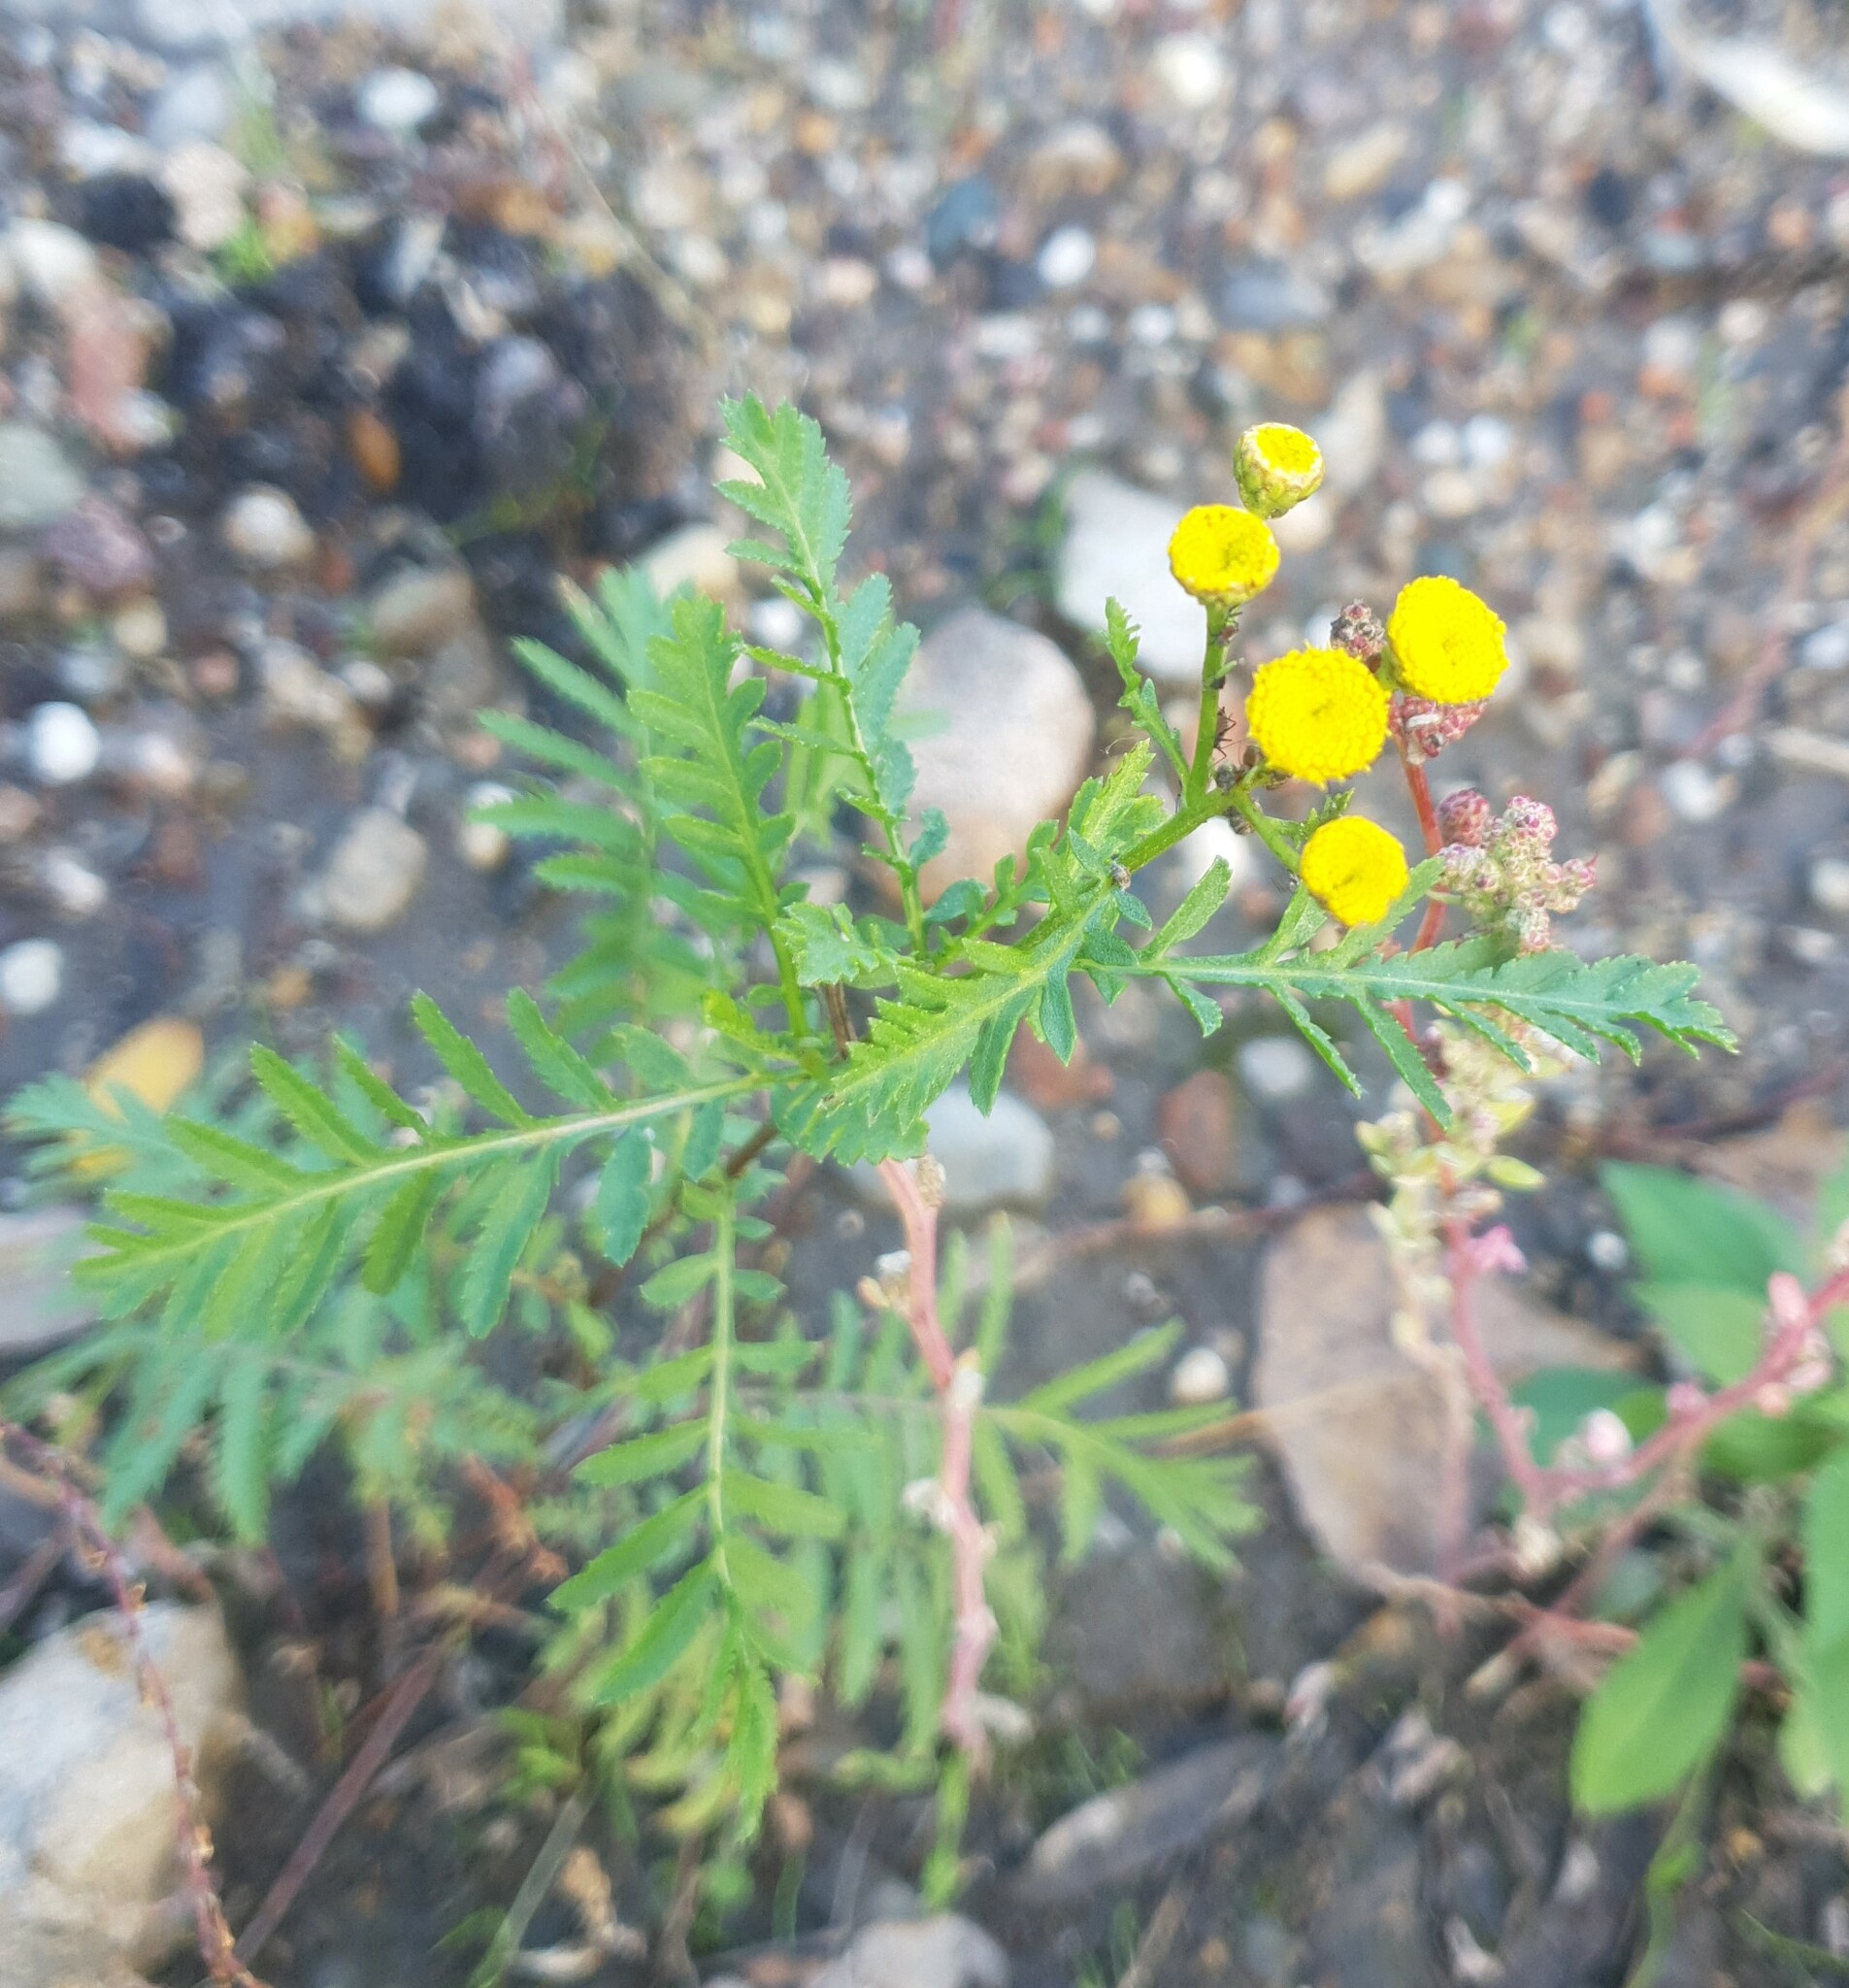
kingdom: Plantae
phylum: Tracheophyta
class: Magnoliopsida
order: Asterales
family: Asteraceae
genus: Tanacetum
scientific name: Tanacetum vulgare
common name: Common tansy
